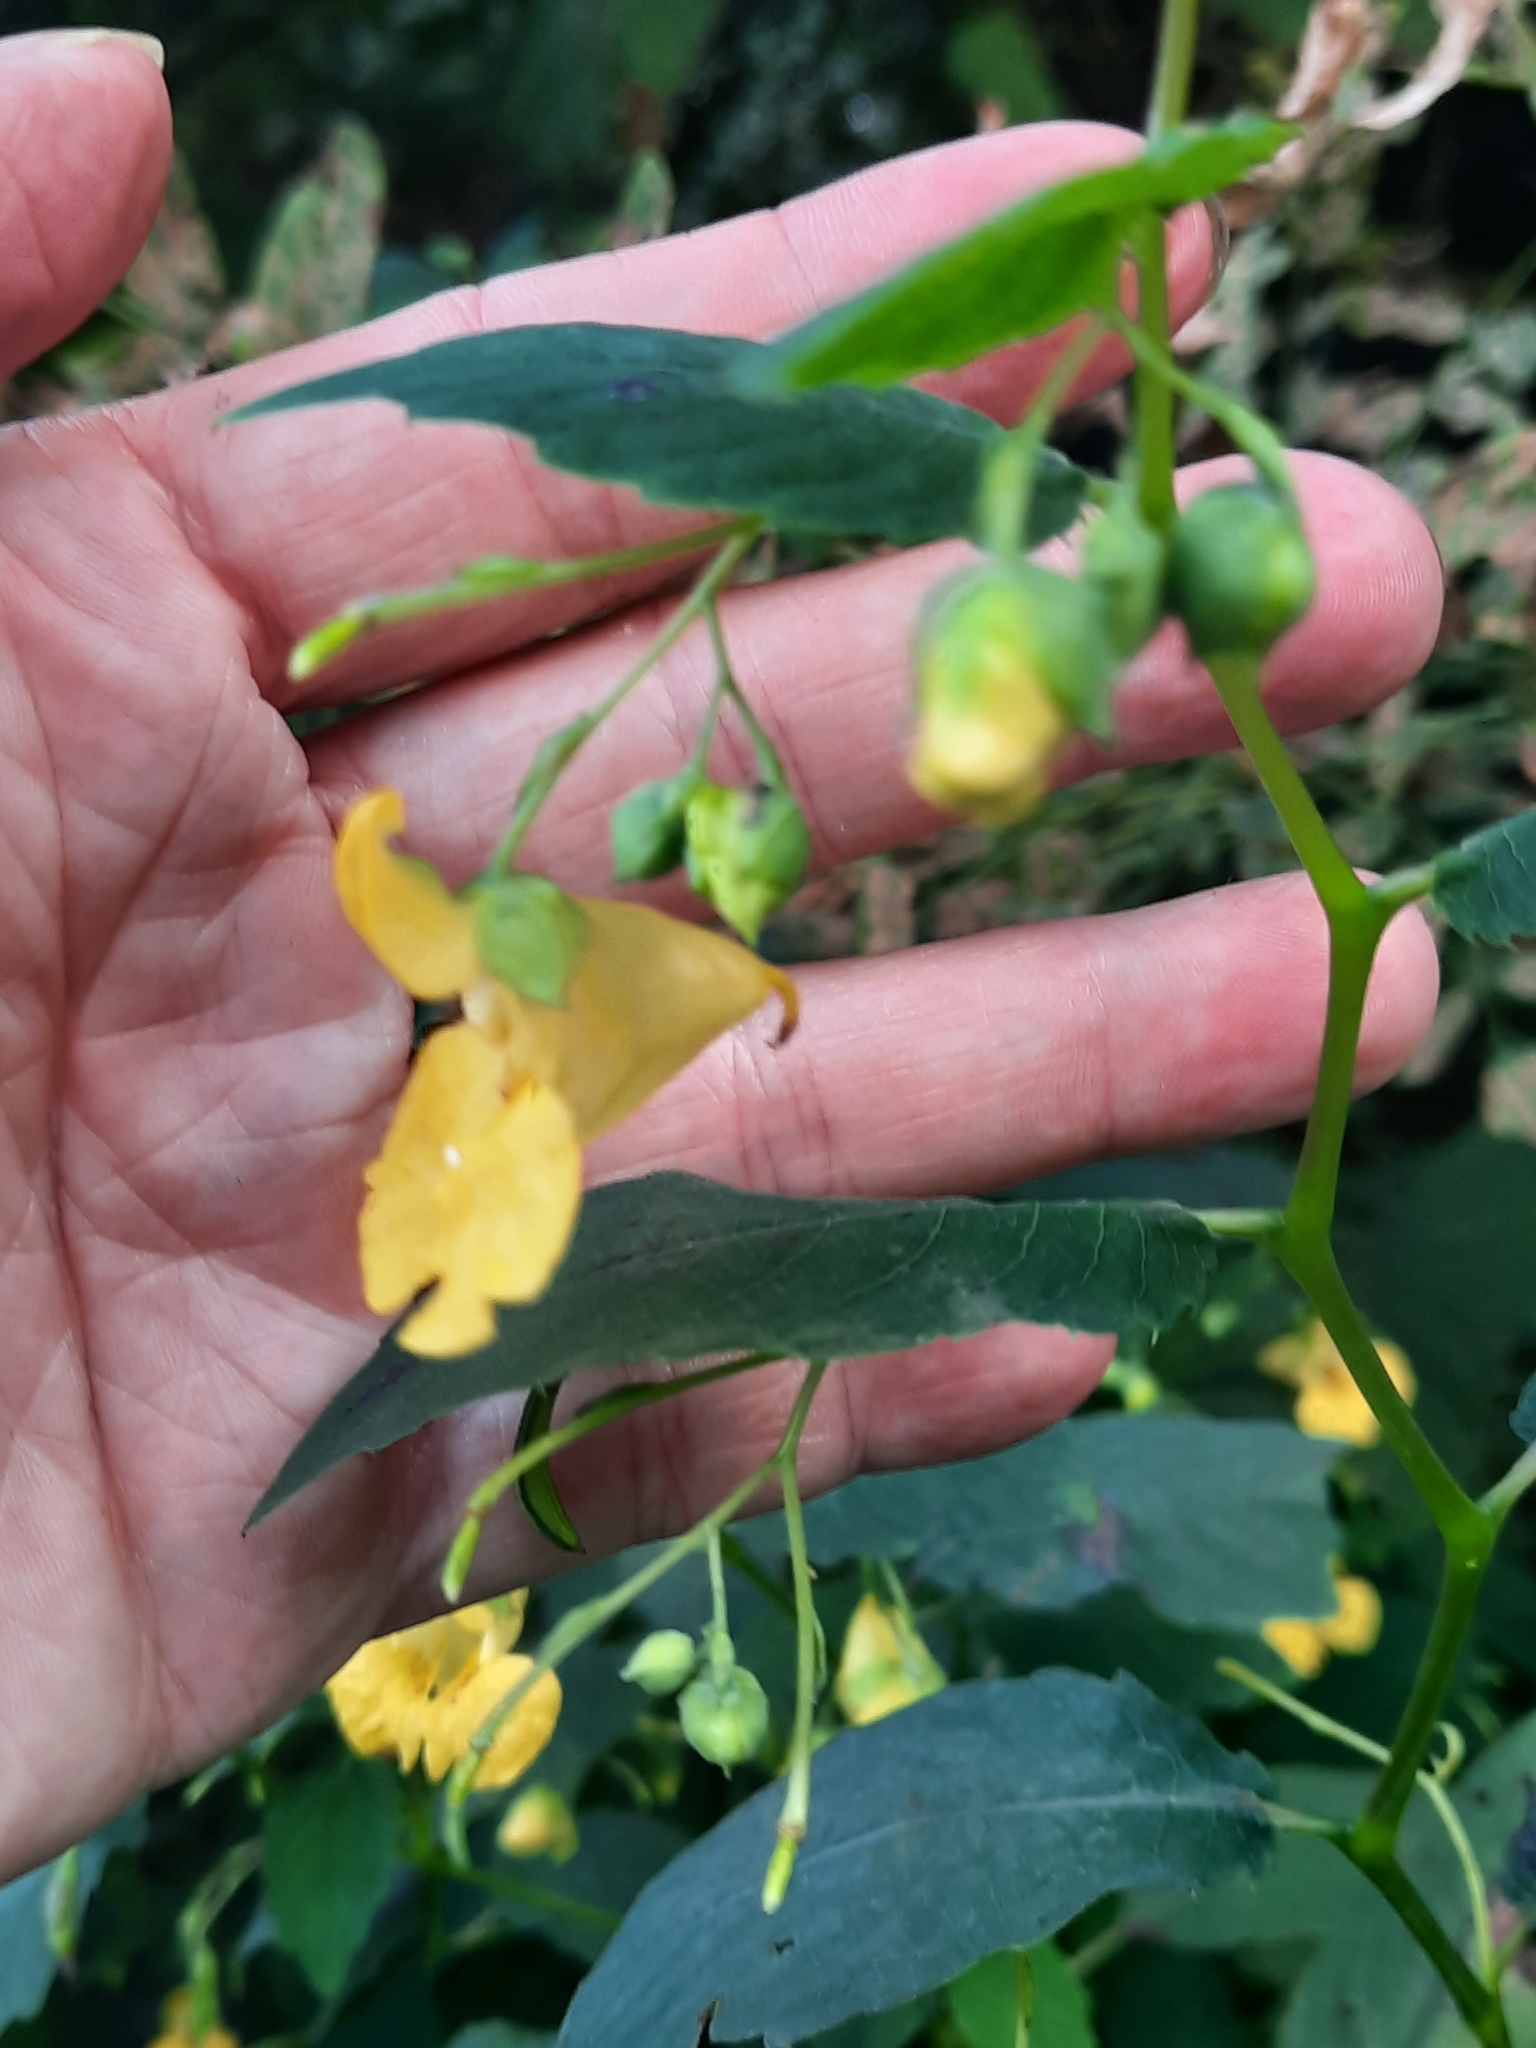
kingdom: Plantae
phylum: Tracheophyta
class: Magnoliopsida
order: Ericales
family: Balsaminaceae
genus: Impatiens
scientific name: Impatiens pallida
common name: Pale snapweed
